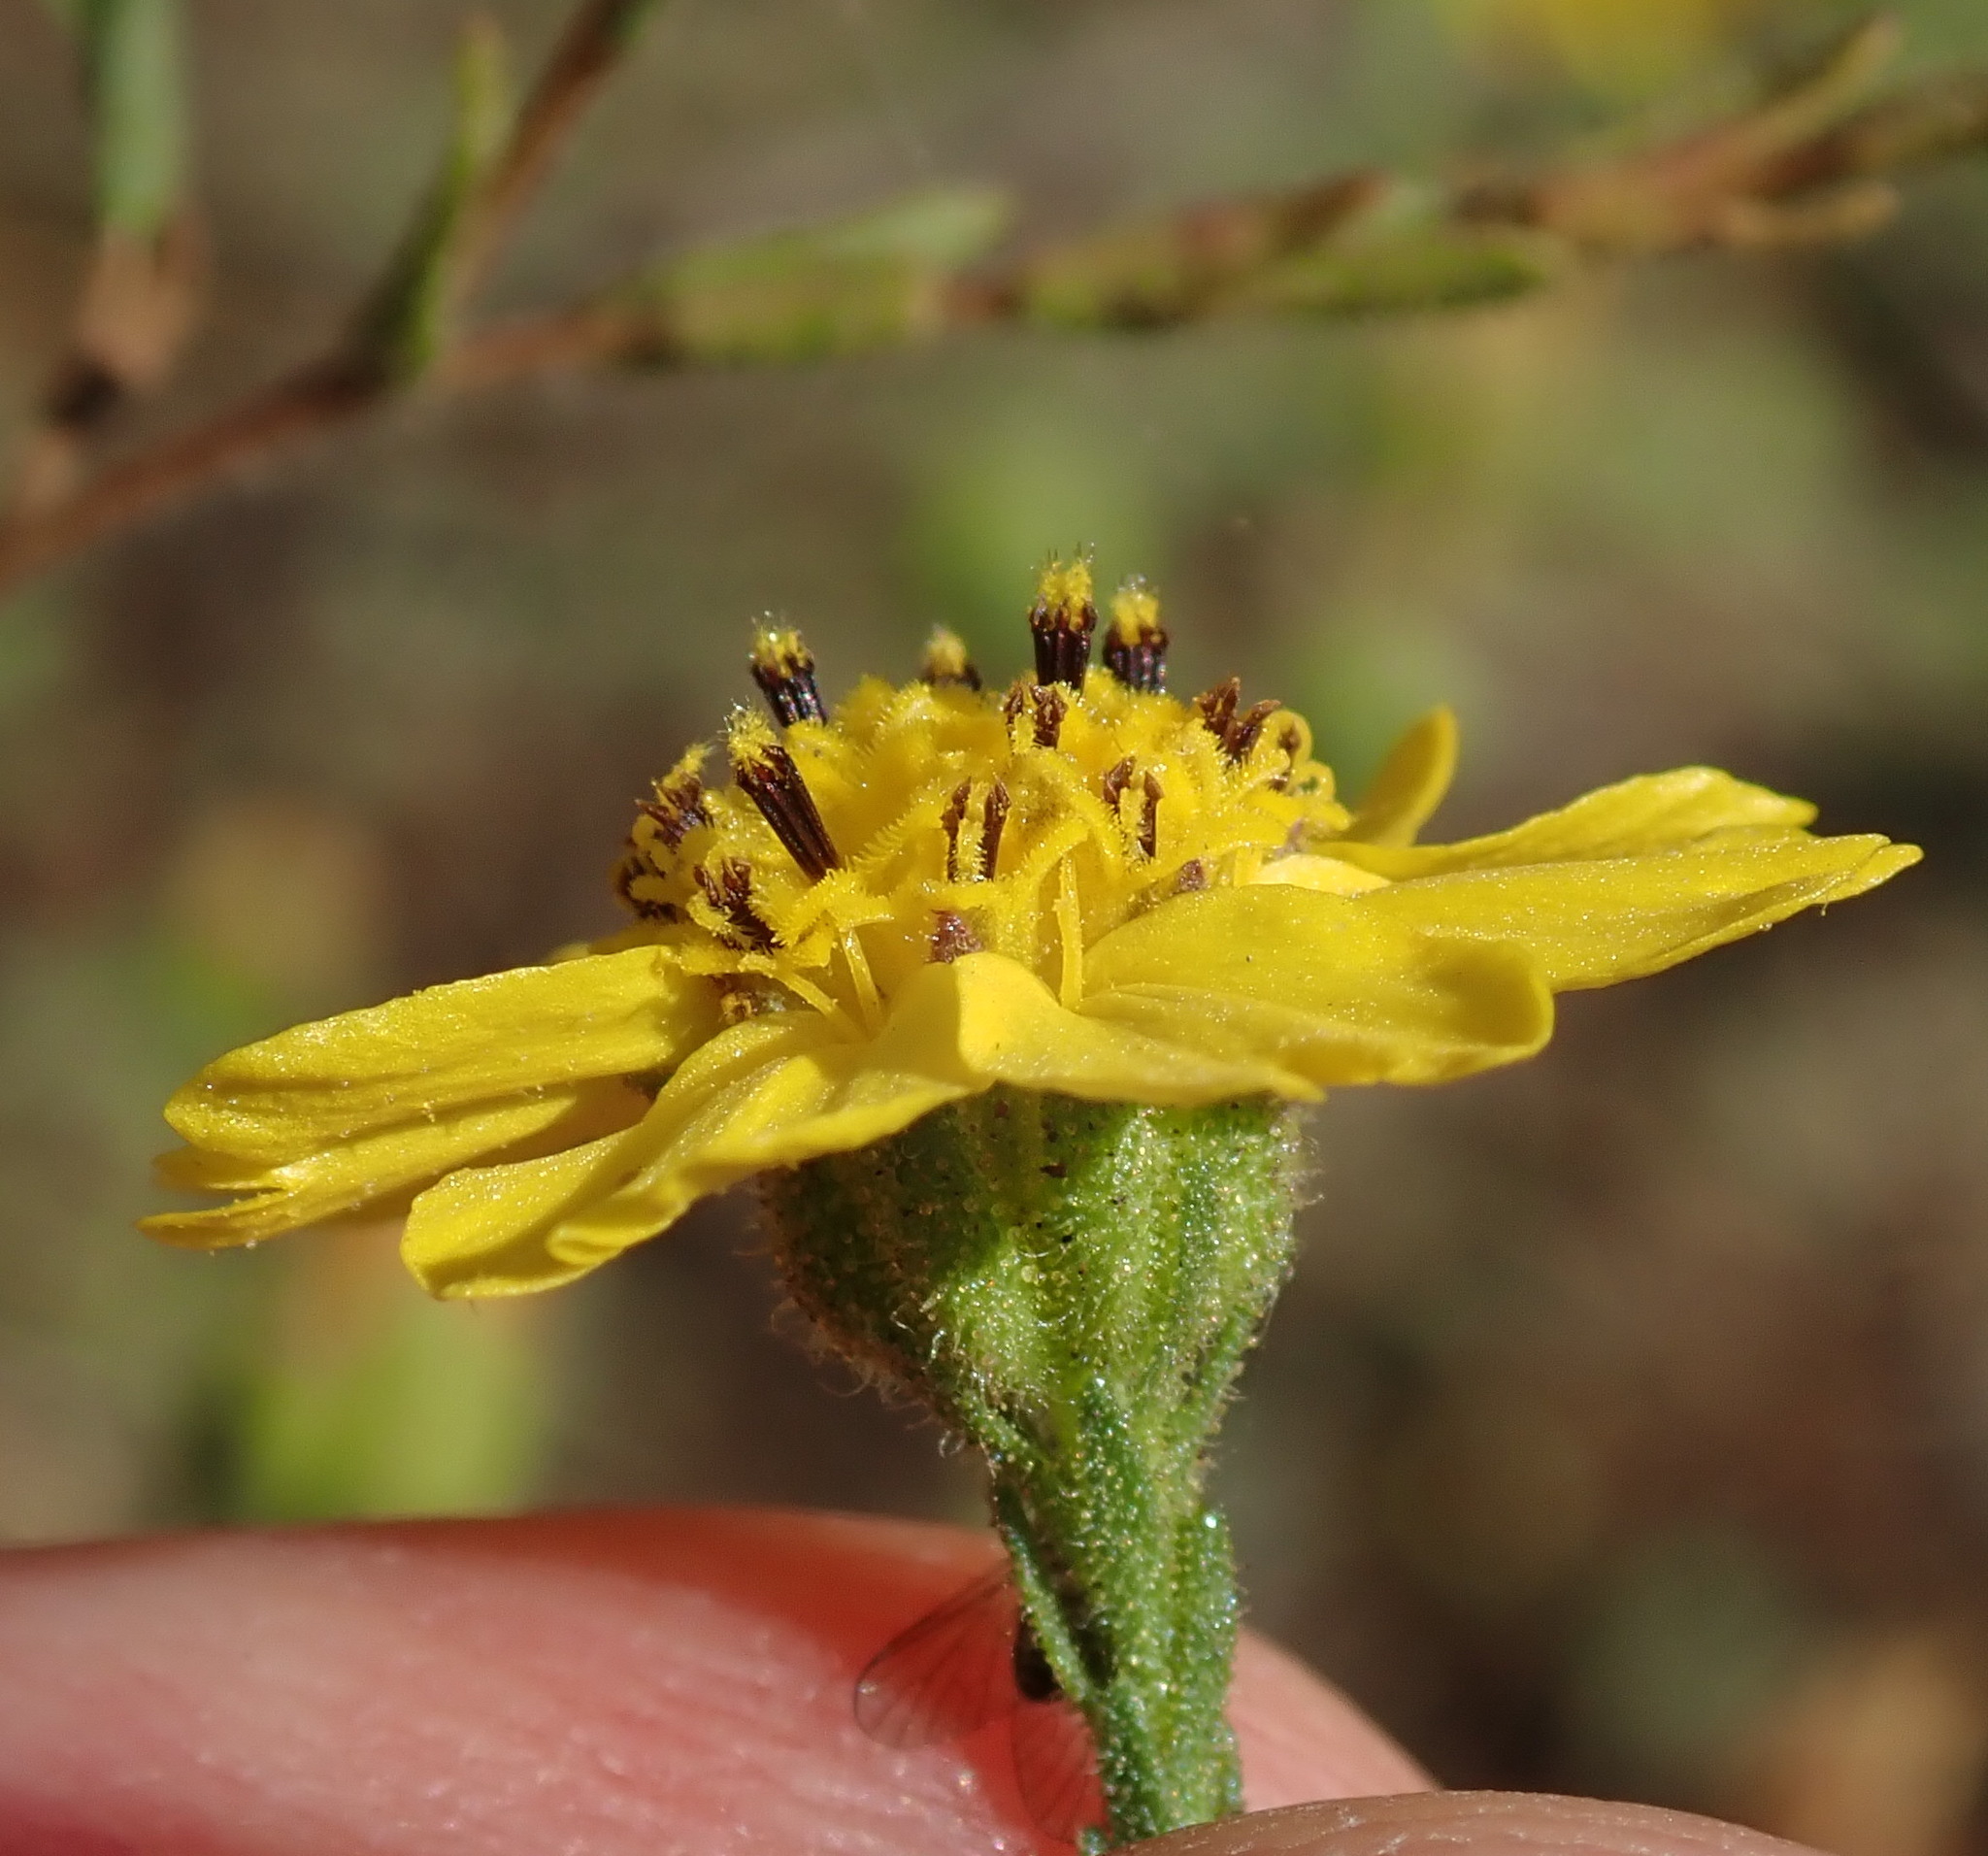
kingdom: Plantae
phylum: Tracheophyta
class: Magnoliopsida
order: Asterales
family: Asteraceae
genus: Deinandra
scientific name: Deinandra paniculata
